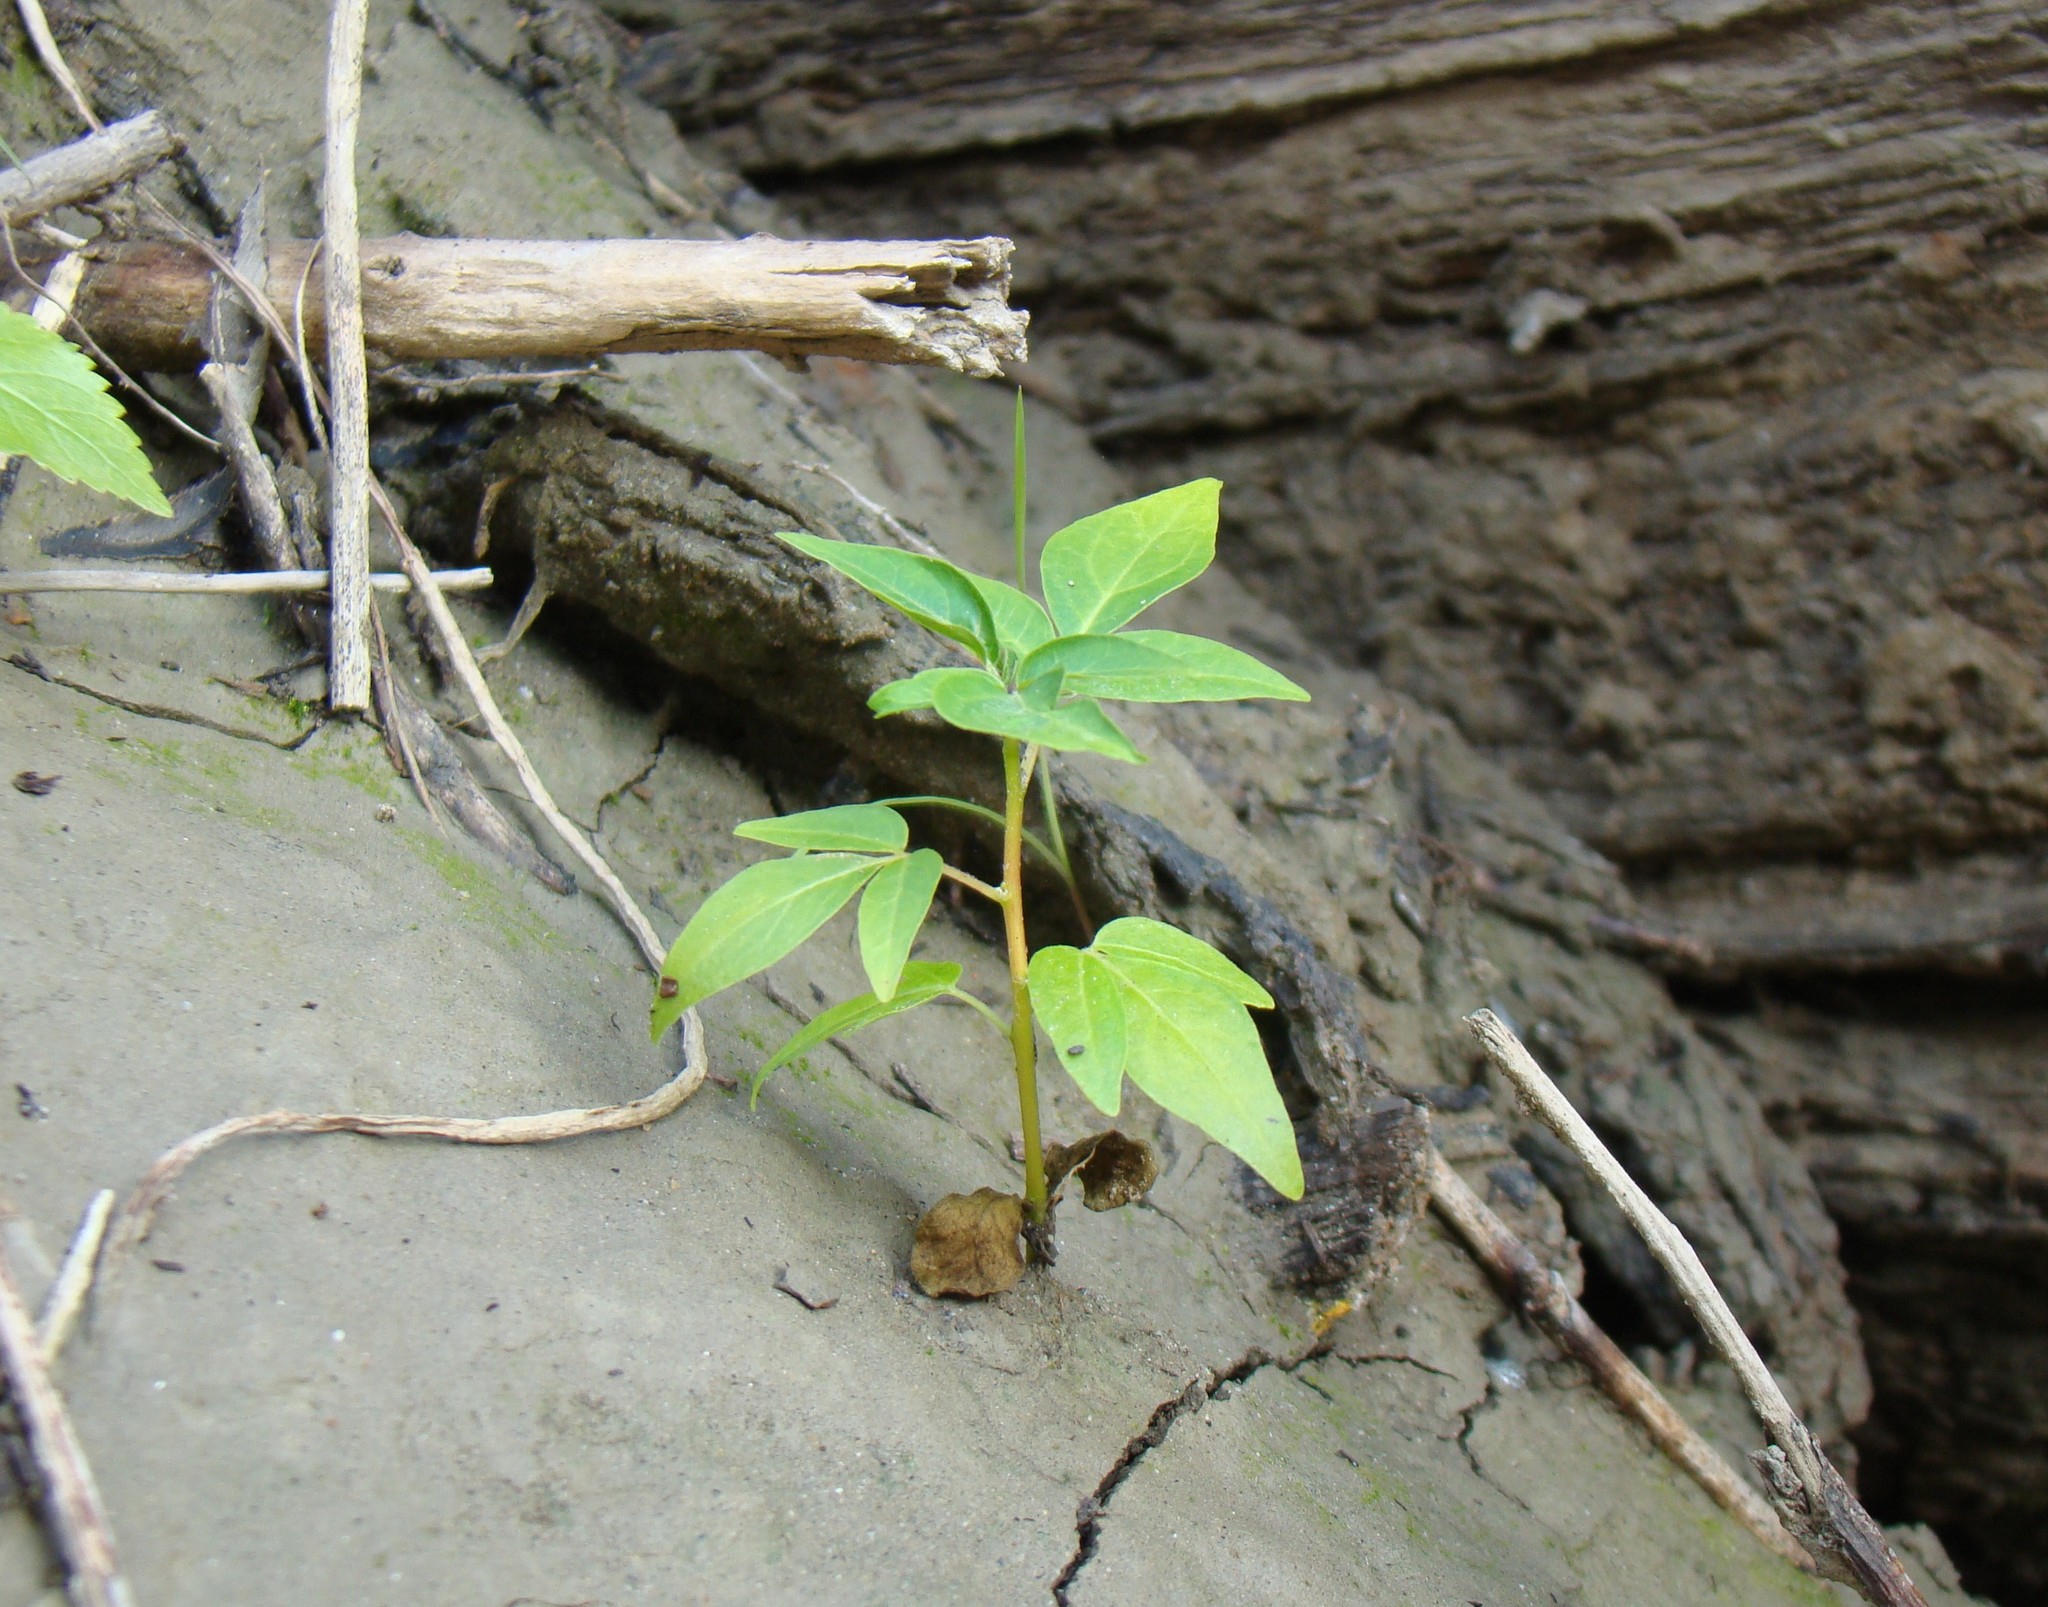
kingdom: Plantae
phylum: Tracheophyta
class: Magnoliopsida
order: Sapindales
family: Simaroubaceae
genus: Ailanthus
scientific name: Ailanthus altissima
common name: Tree-of-heaven
